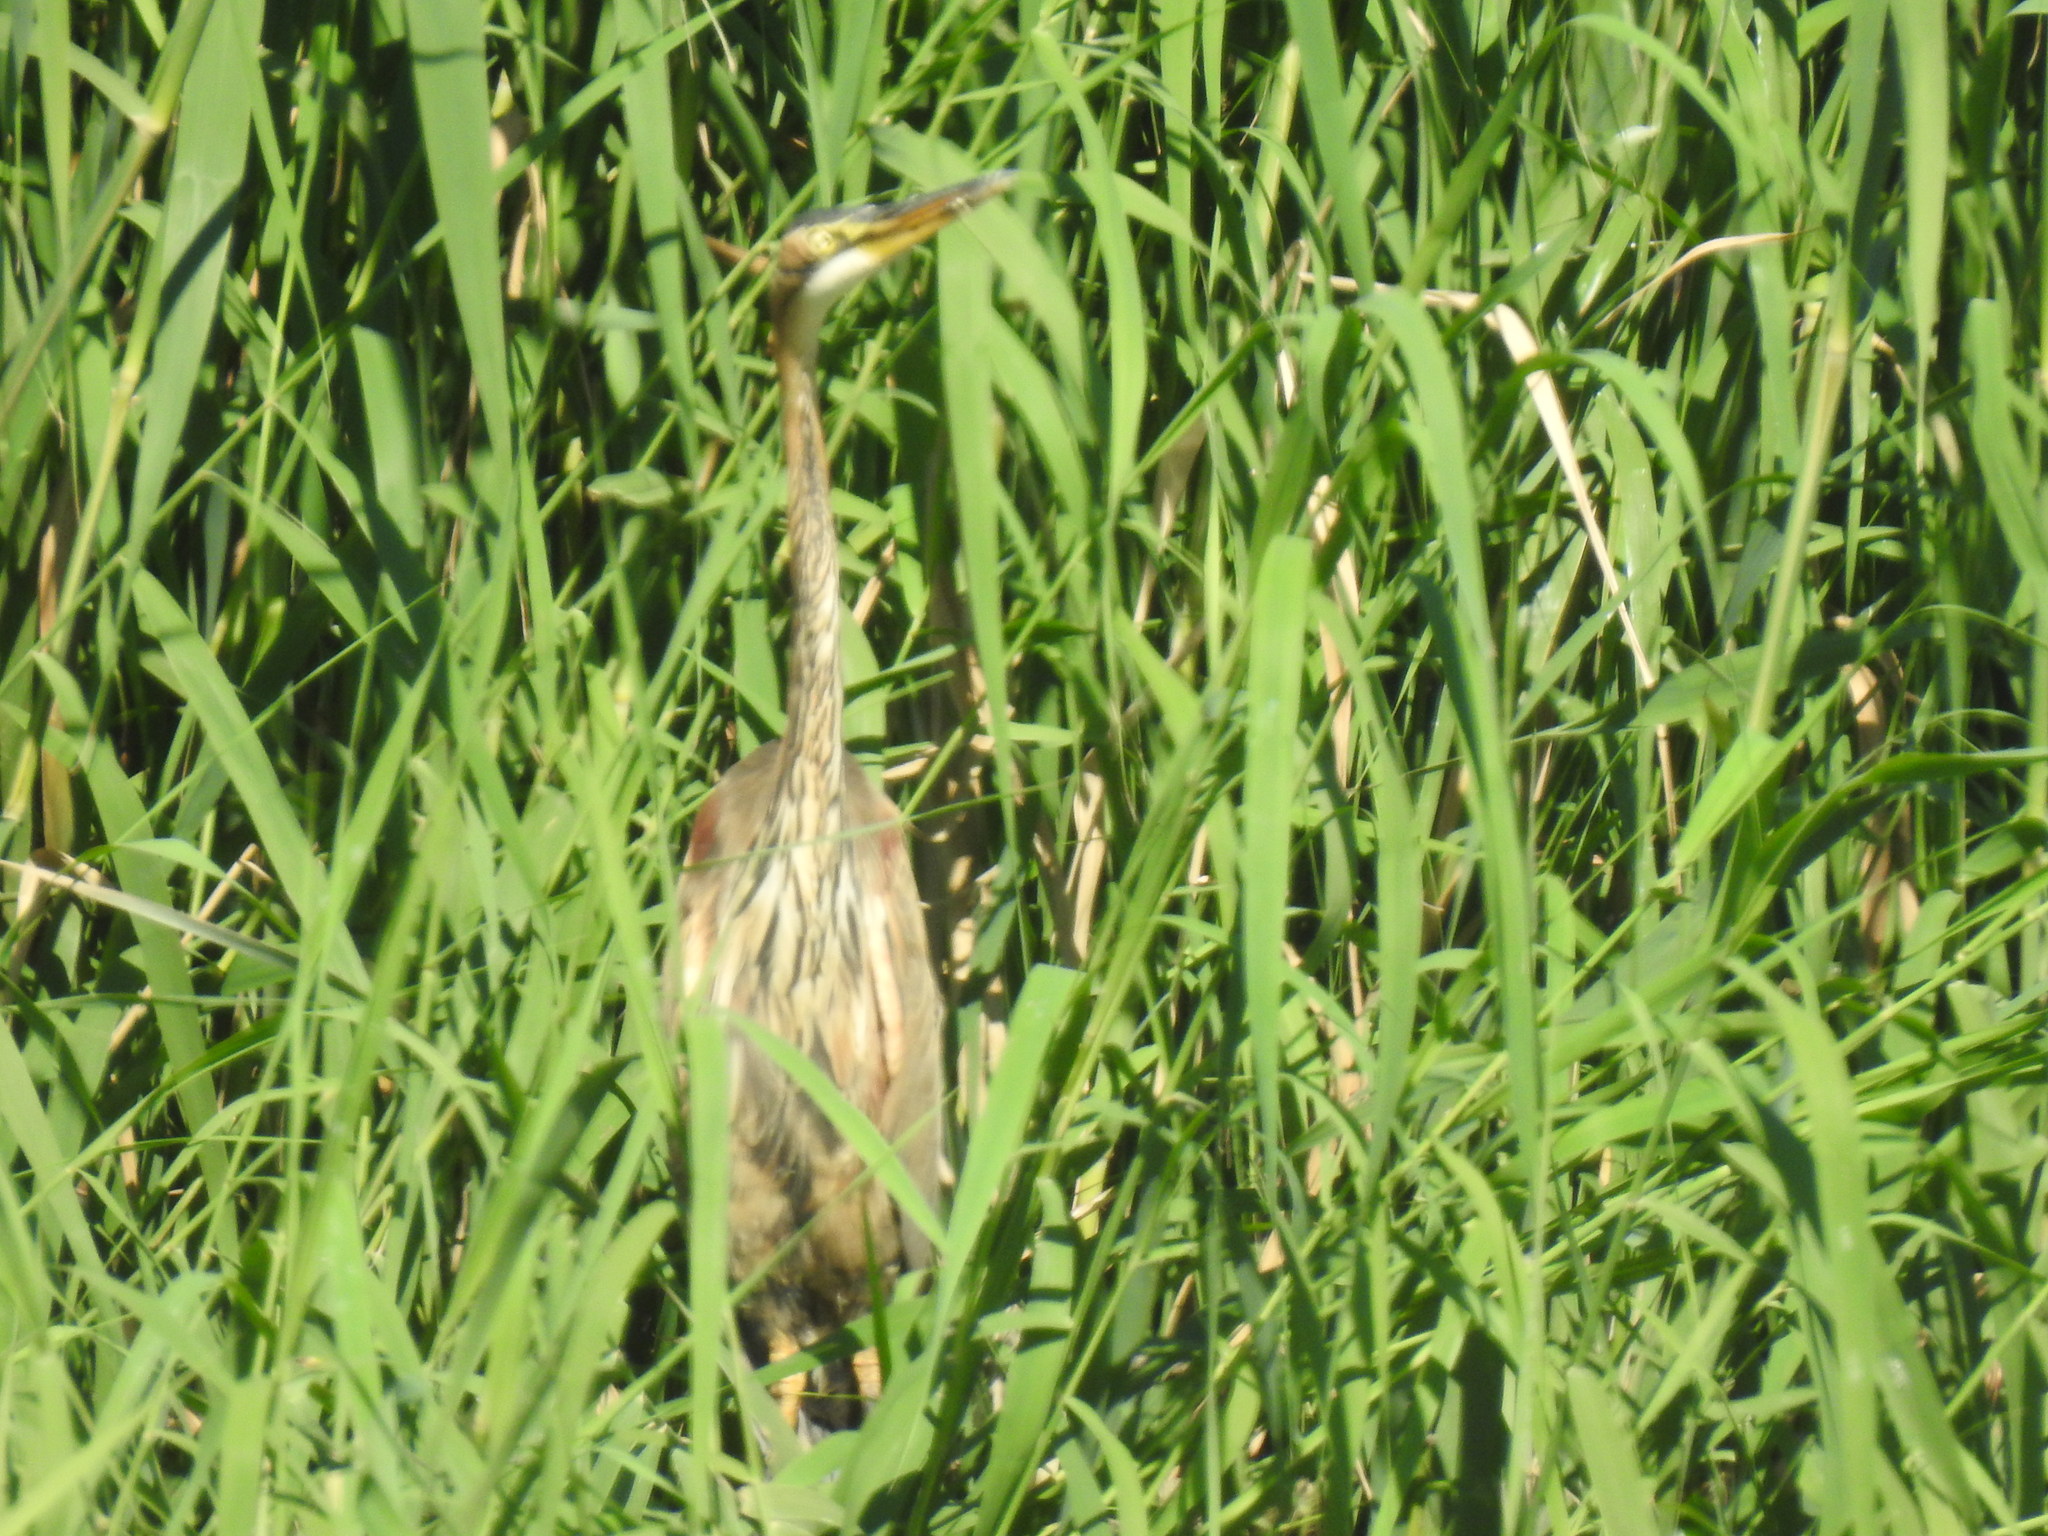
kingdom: Animalia
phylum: Chordata
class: Aves
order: Pelecaniformes
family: Ardeidae
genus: Ardea
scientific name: Ardea purpurea
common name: Purple heron
